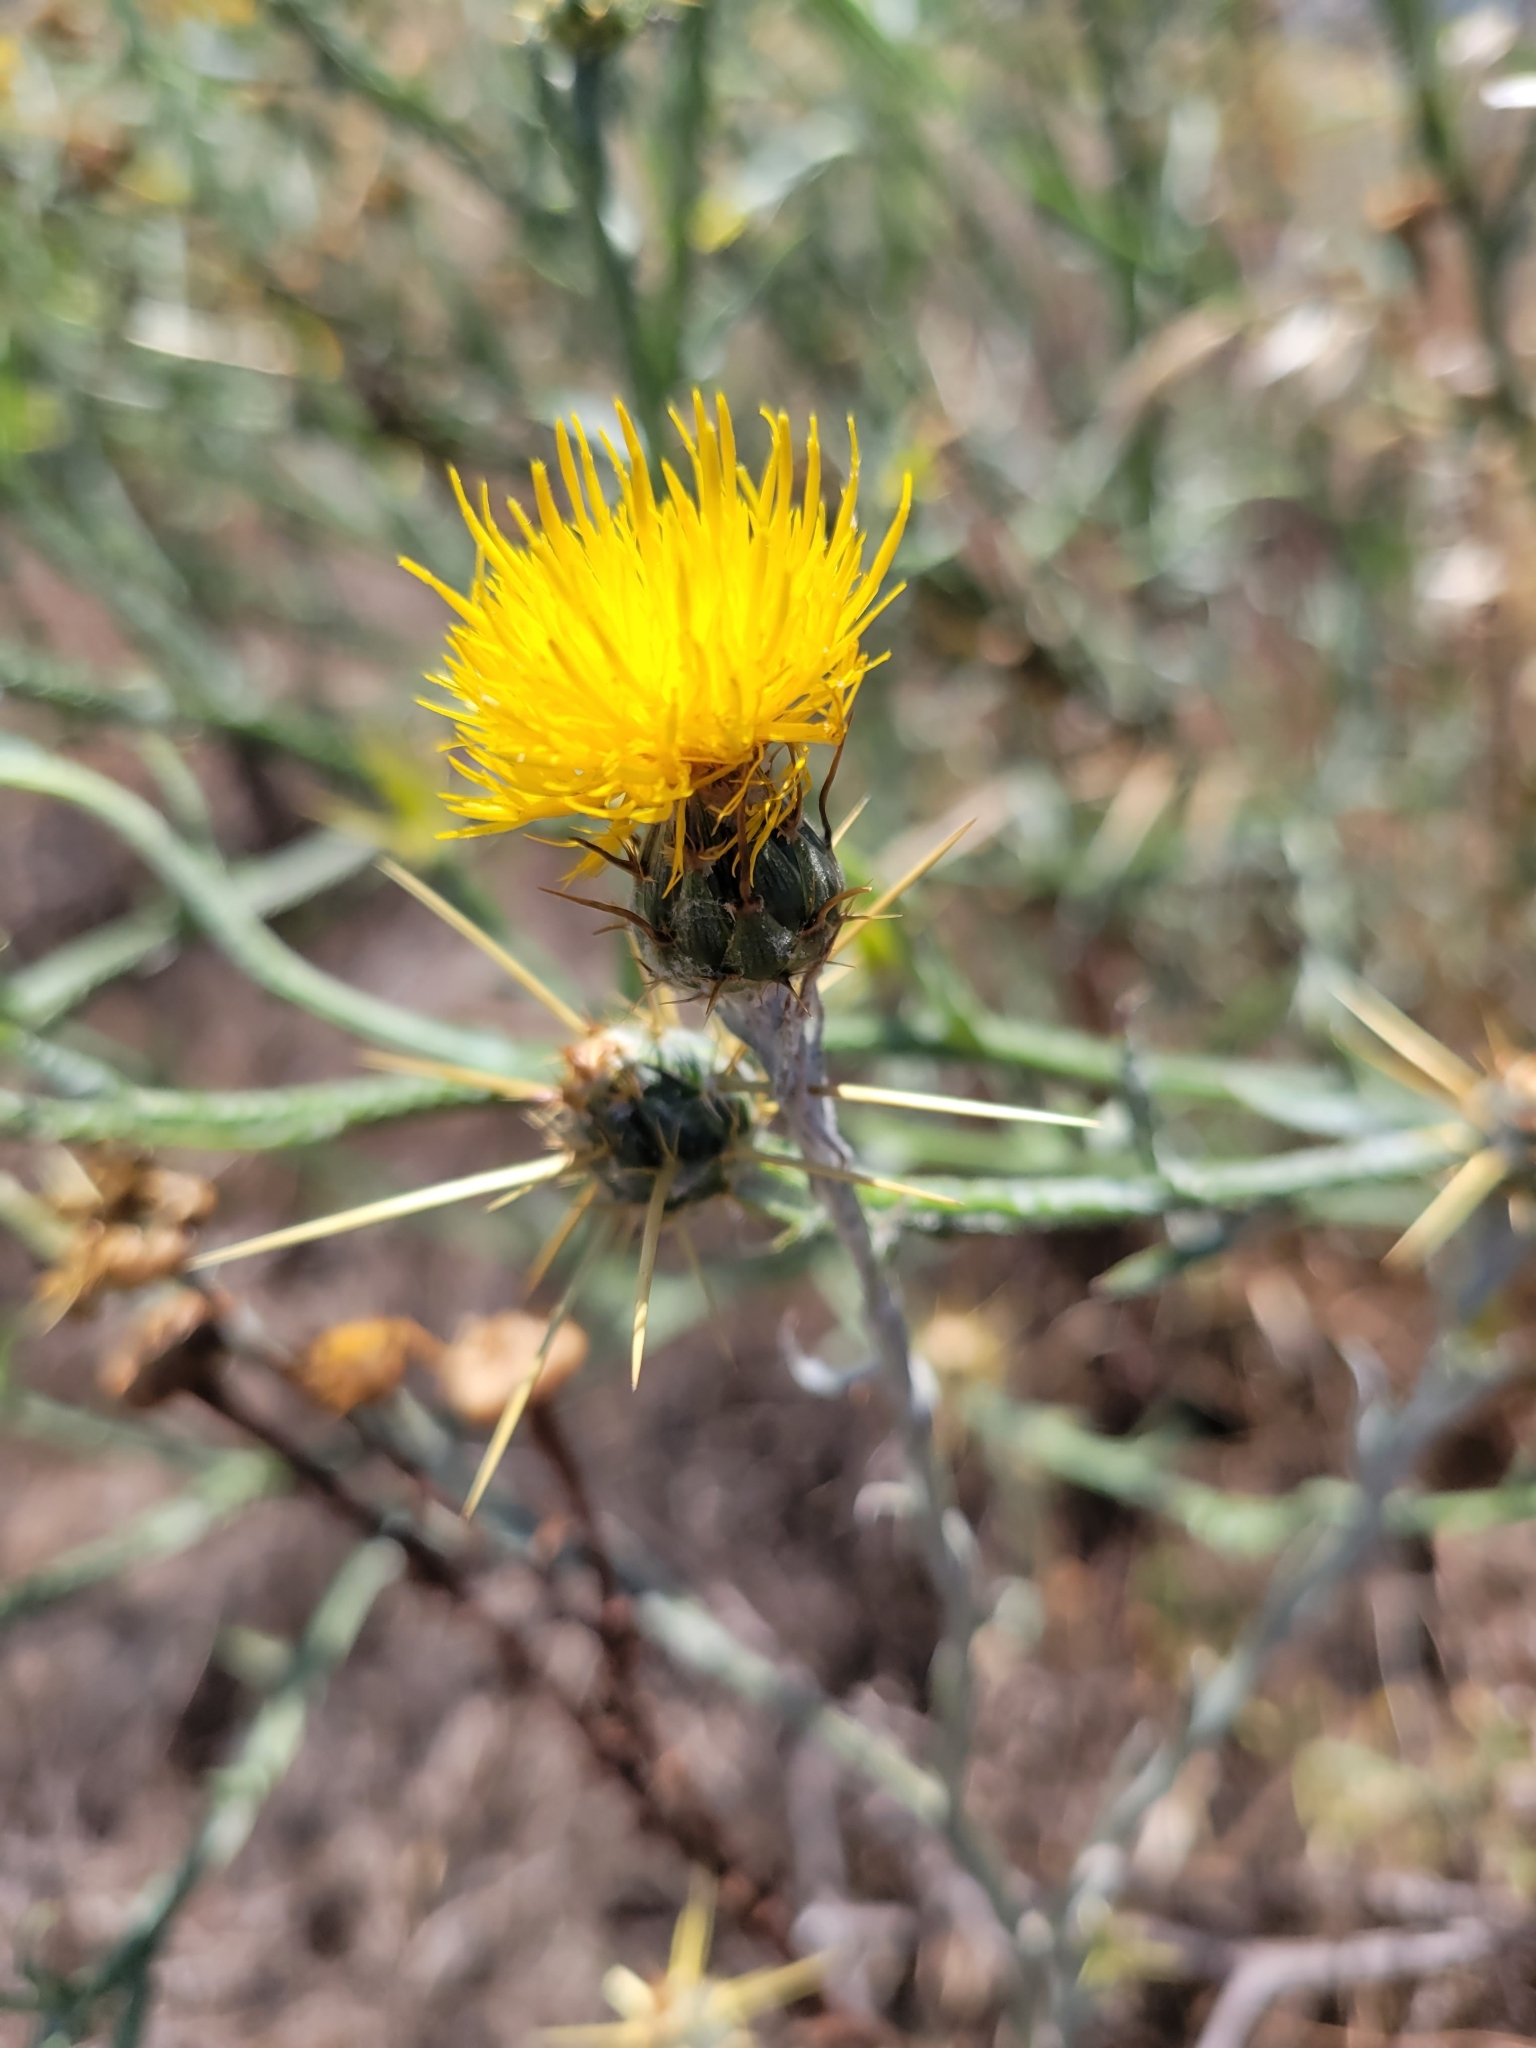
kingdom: Plantae
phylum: Tracheophyta
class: Magnoliopsida
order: Asterales
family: Asteraceae
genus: Centaurea
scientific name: Centaurea solstitialis
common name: Yellow star-thistle
